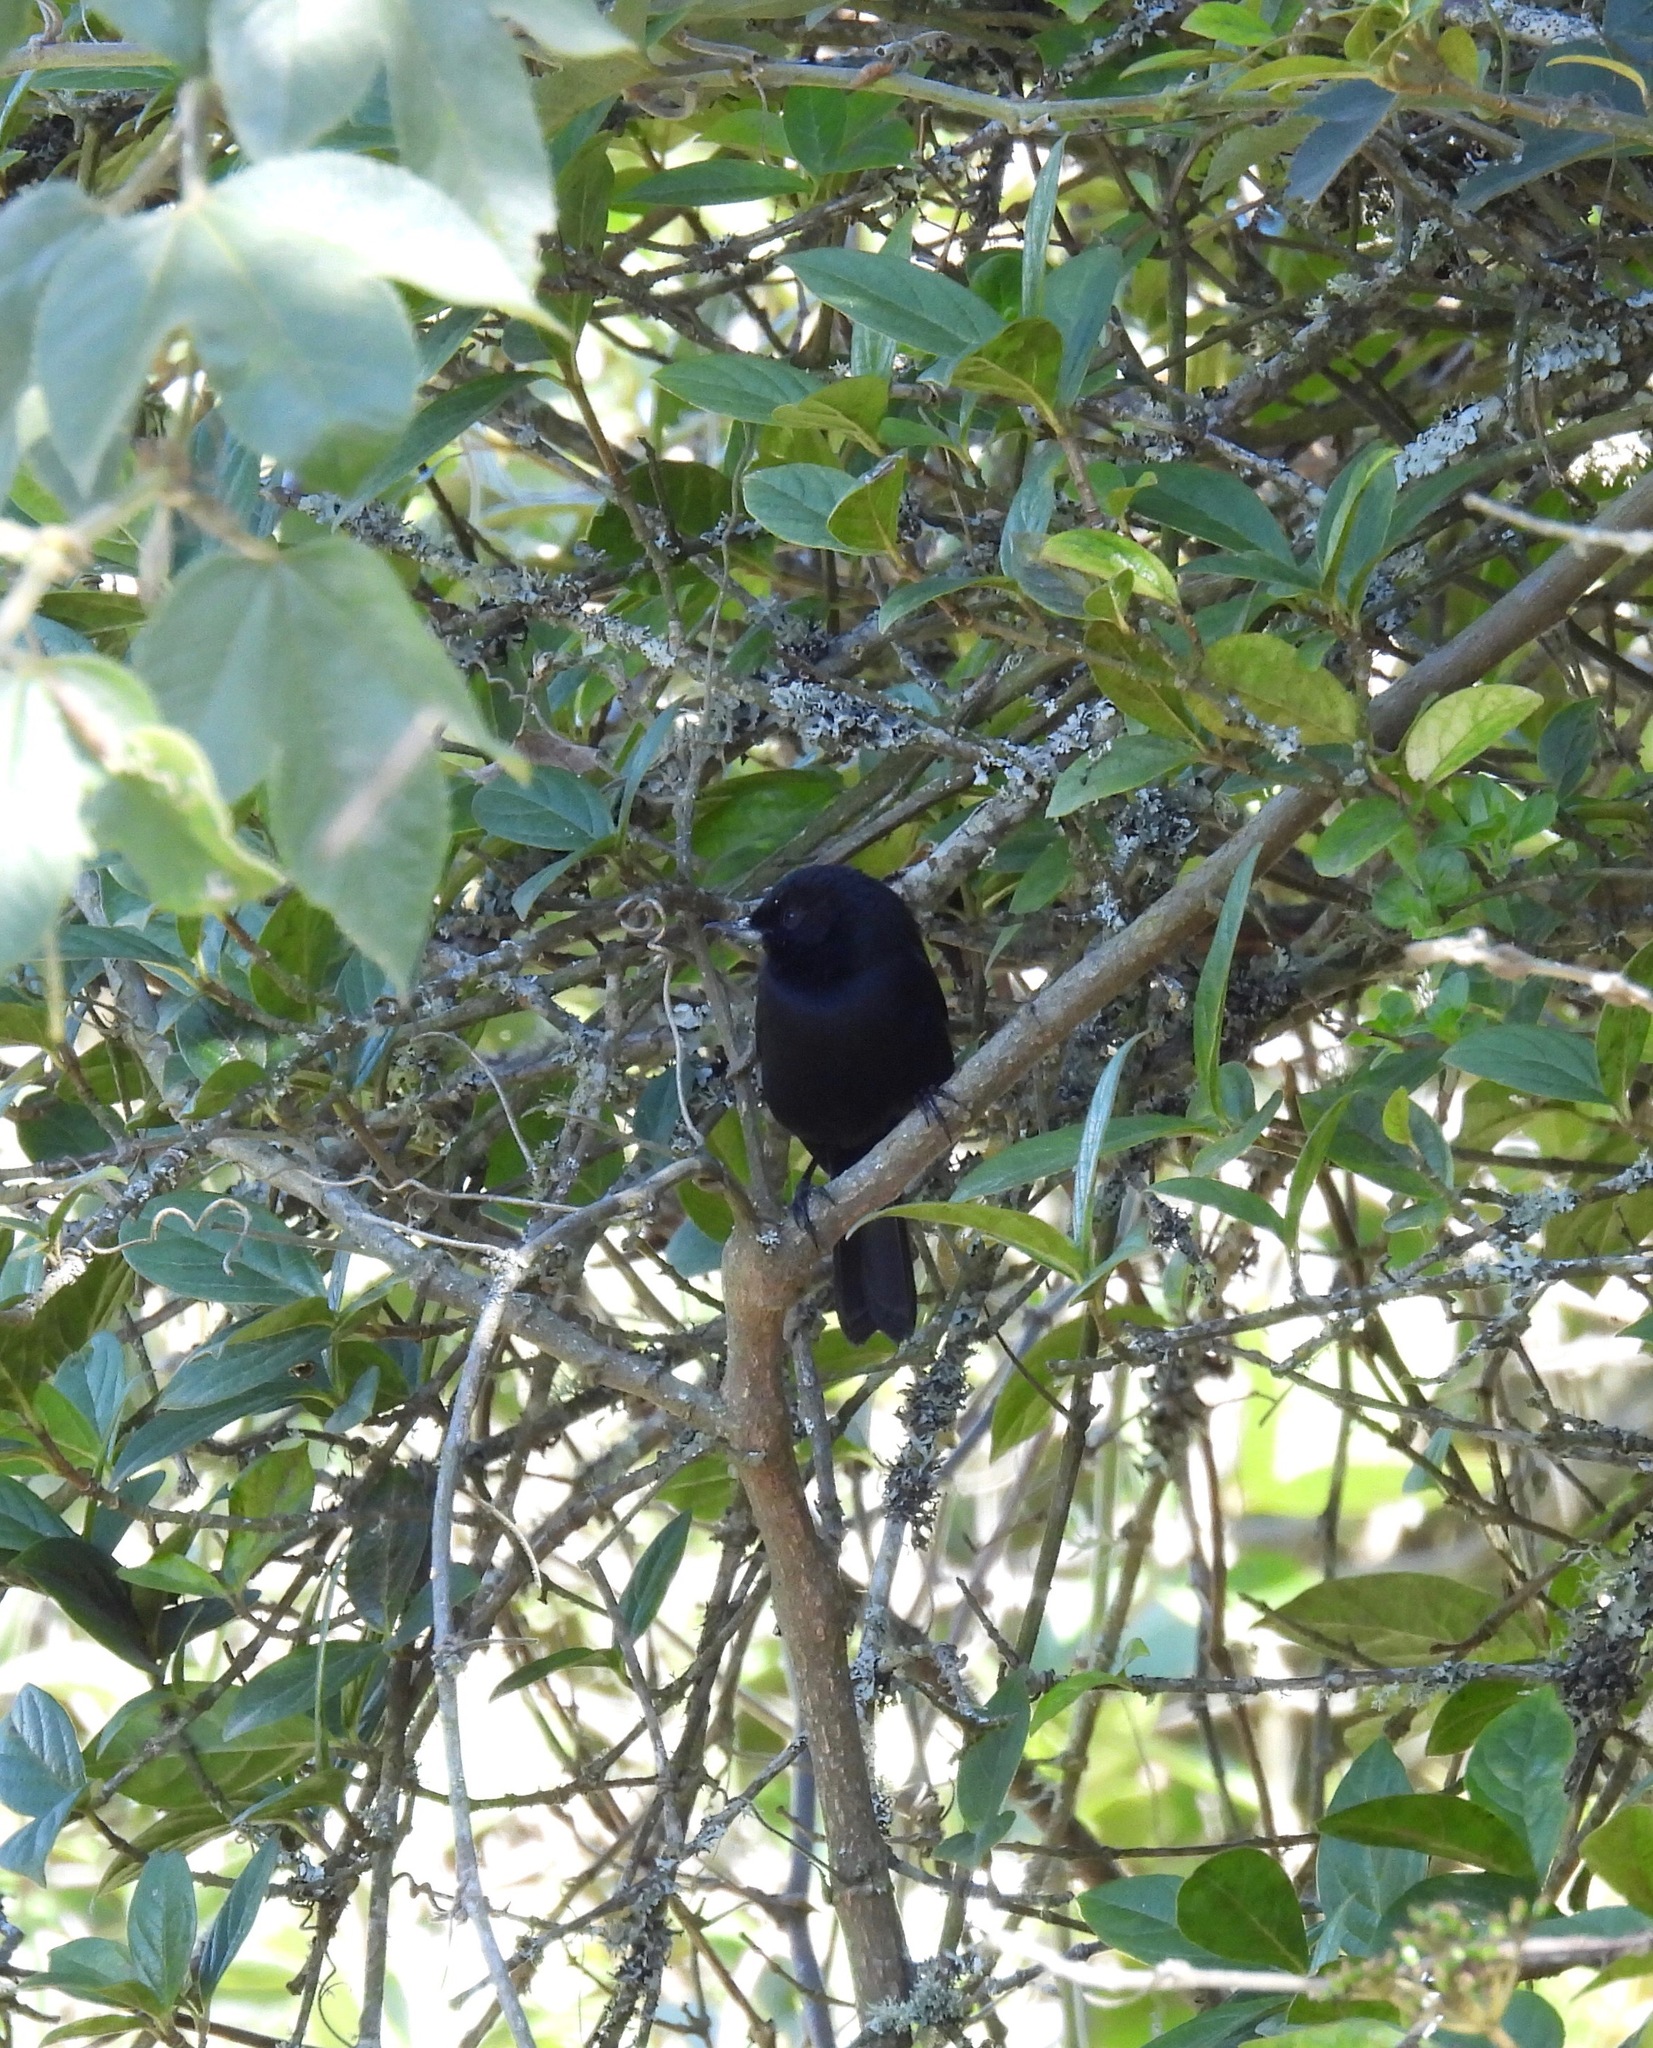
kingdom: Animalia
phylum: Chordata
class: Aves
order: Passeriformes
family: Thraupidae
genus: Diglossa
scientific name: Diglossa humeralis
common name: Black flowerpiercer
